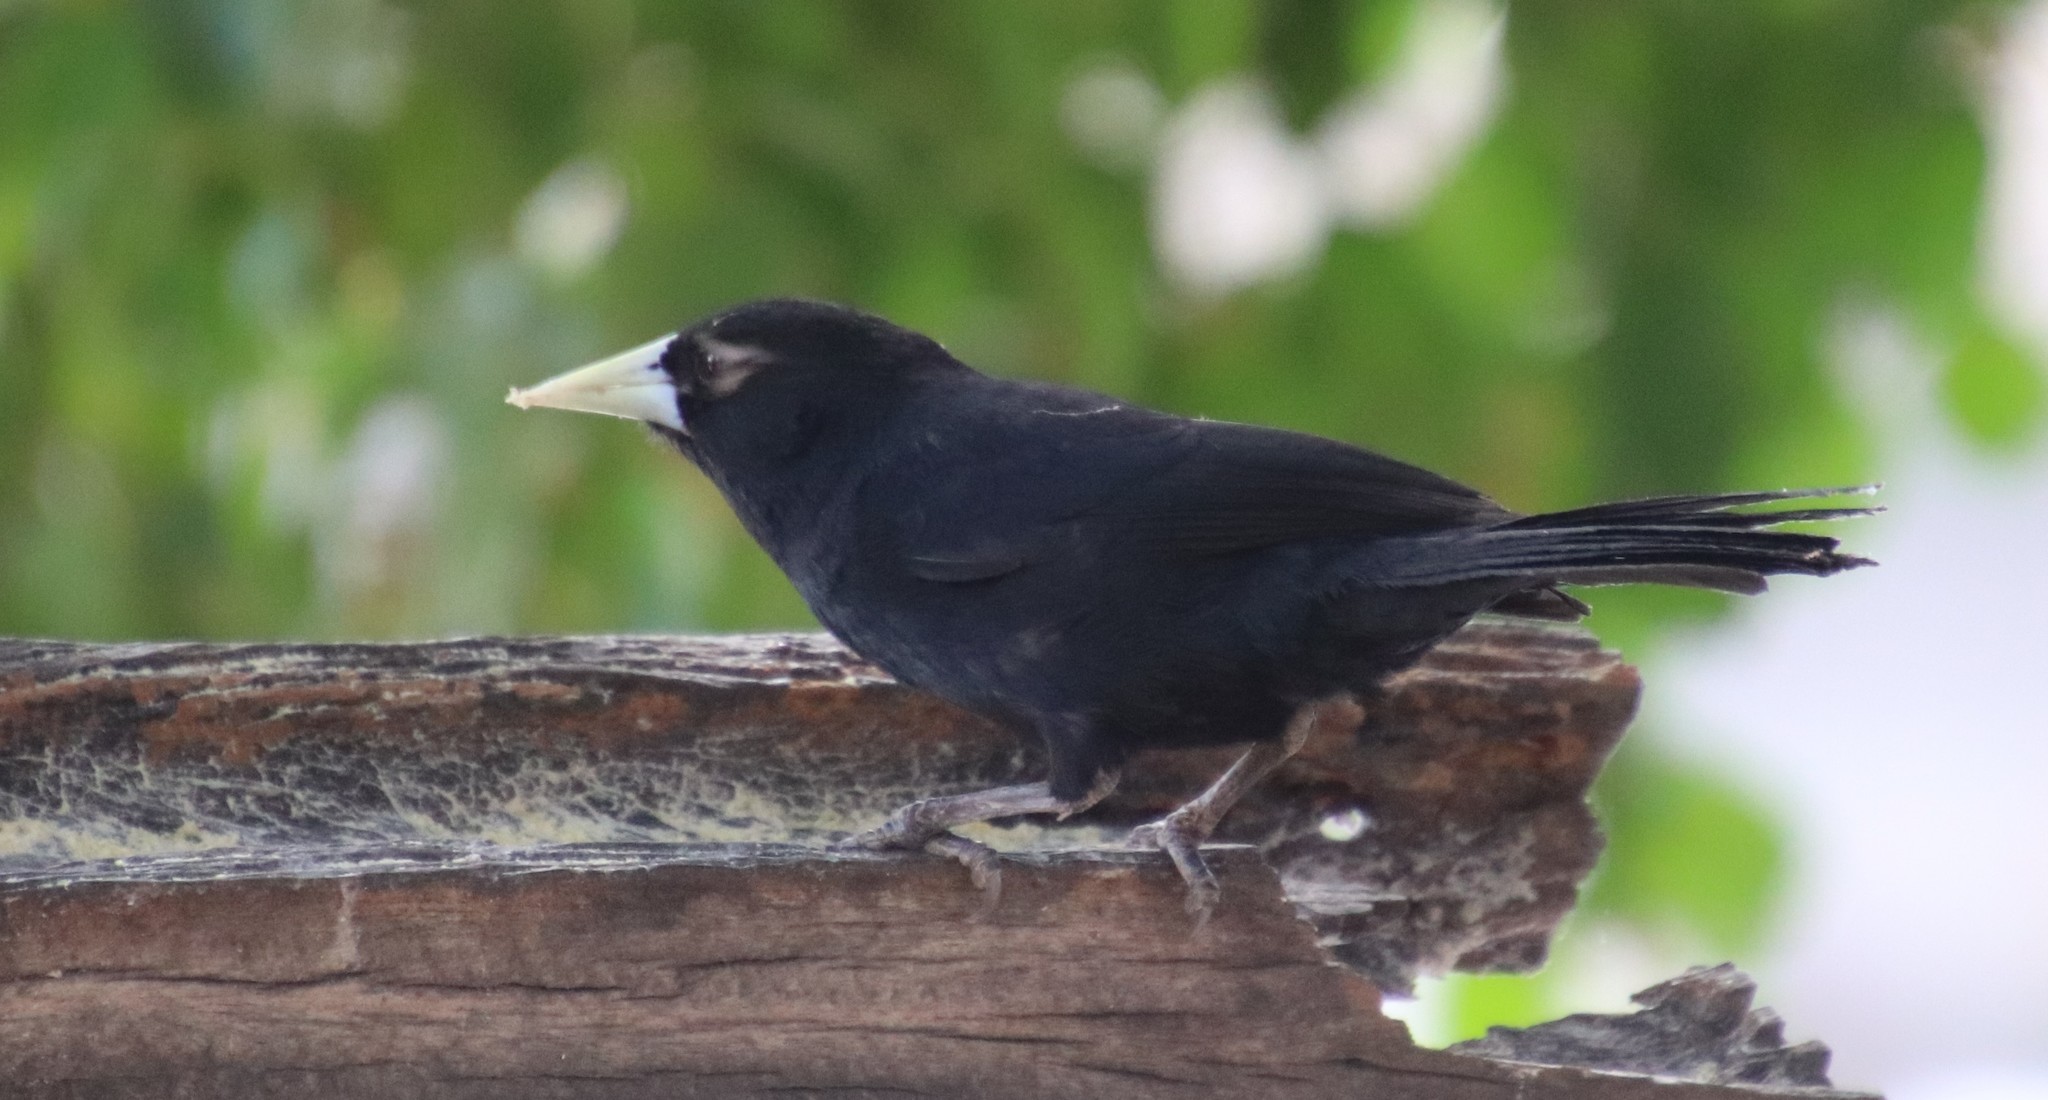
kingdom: Animalia
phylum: Chordata
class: Aves
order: Passeriformes
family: Icteridae
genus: Cacicus
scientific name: Cacicus solitarius
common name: Solitary cacique
